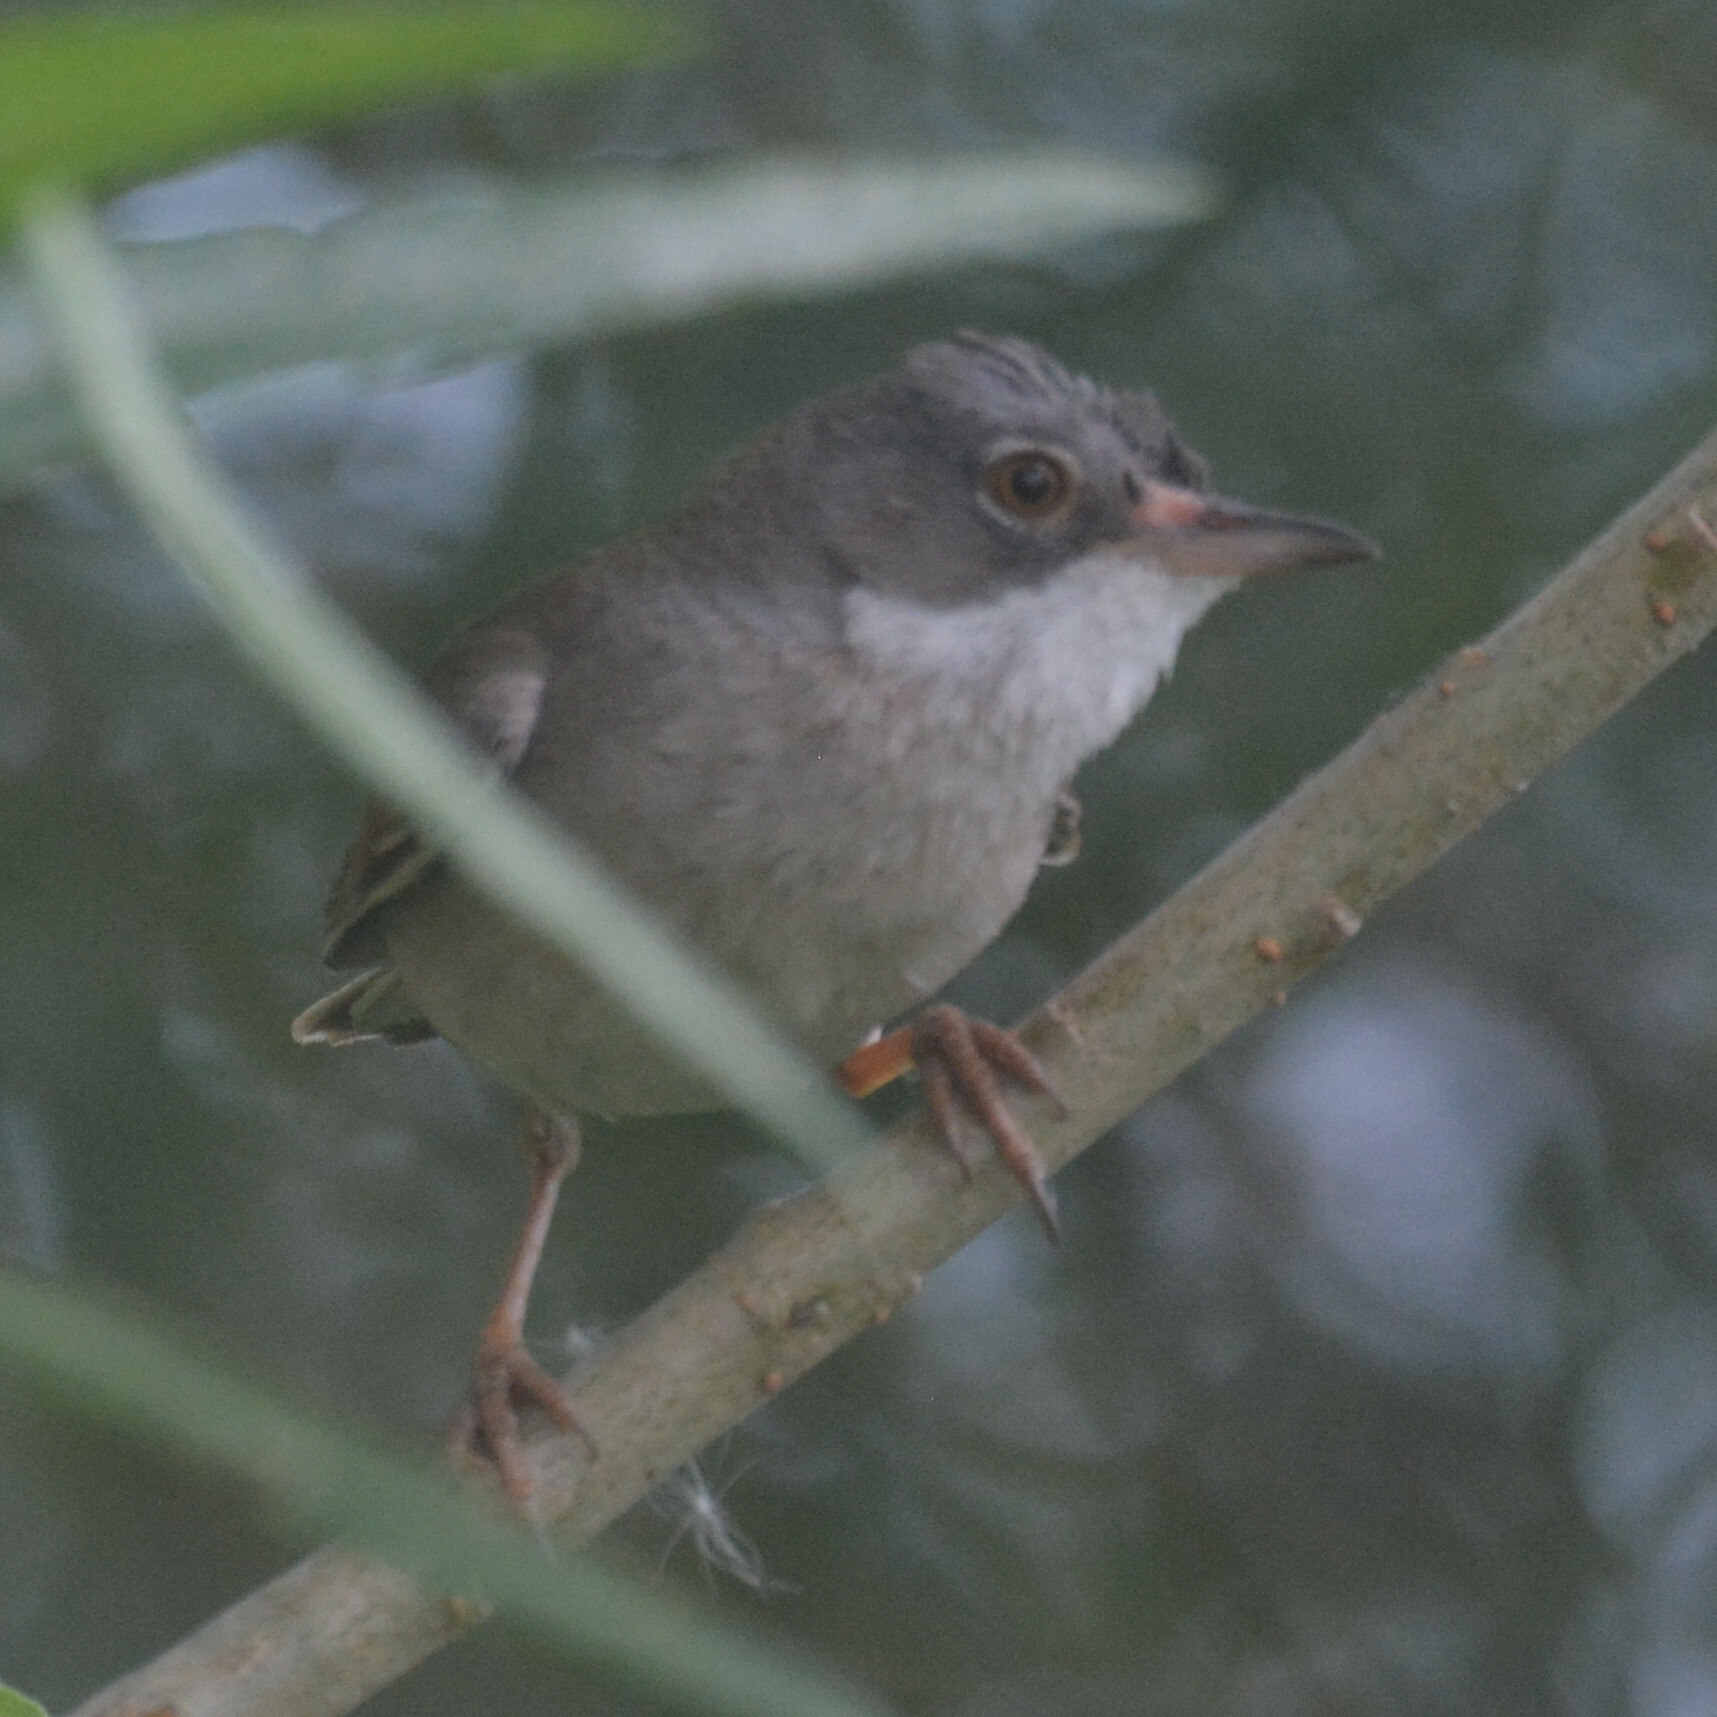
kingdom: Animalia
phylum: Chordata
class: Aves
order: Passeriformes
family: Sylviidae
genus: Sylvia
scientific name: Sylvia communis
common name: Common whitethroat
